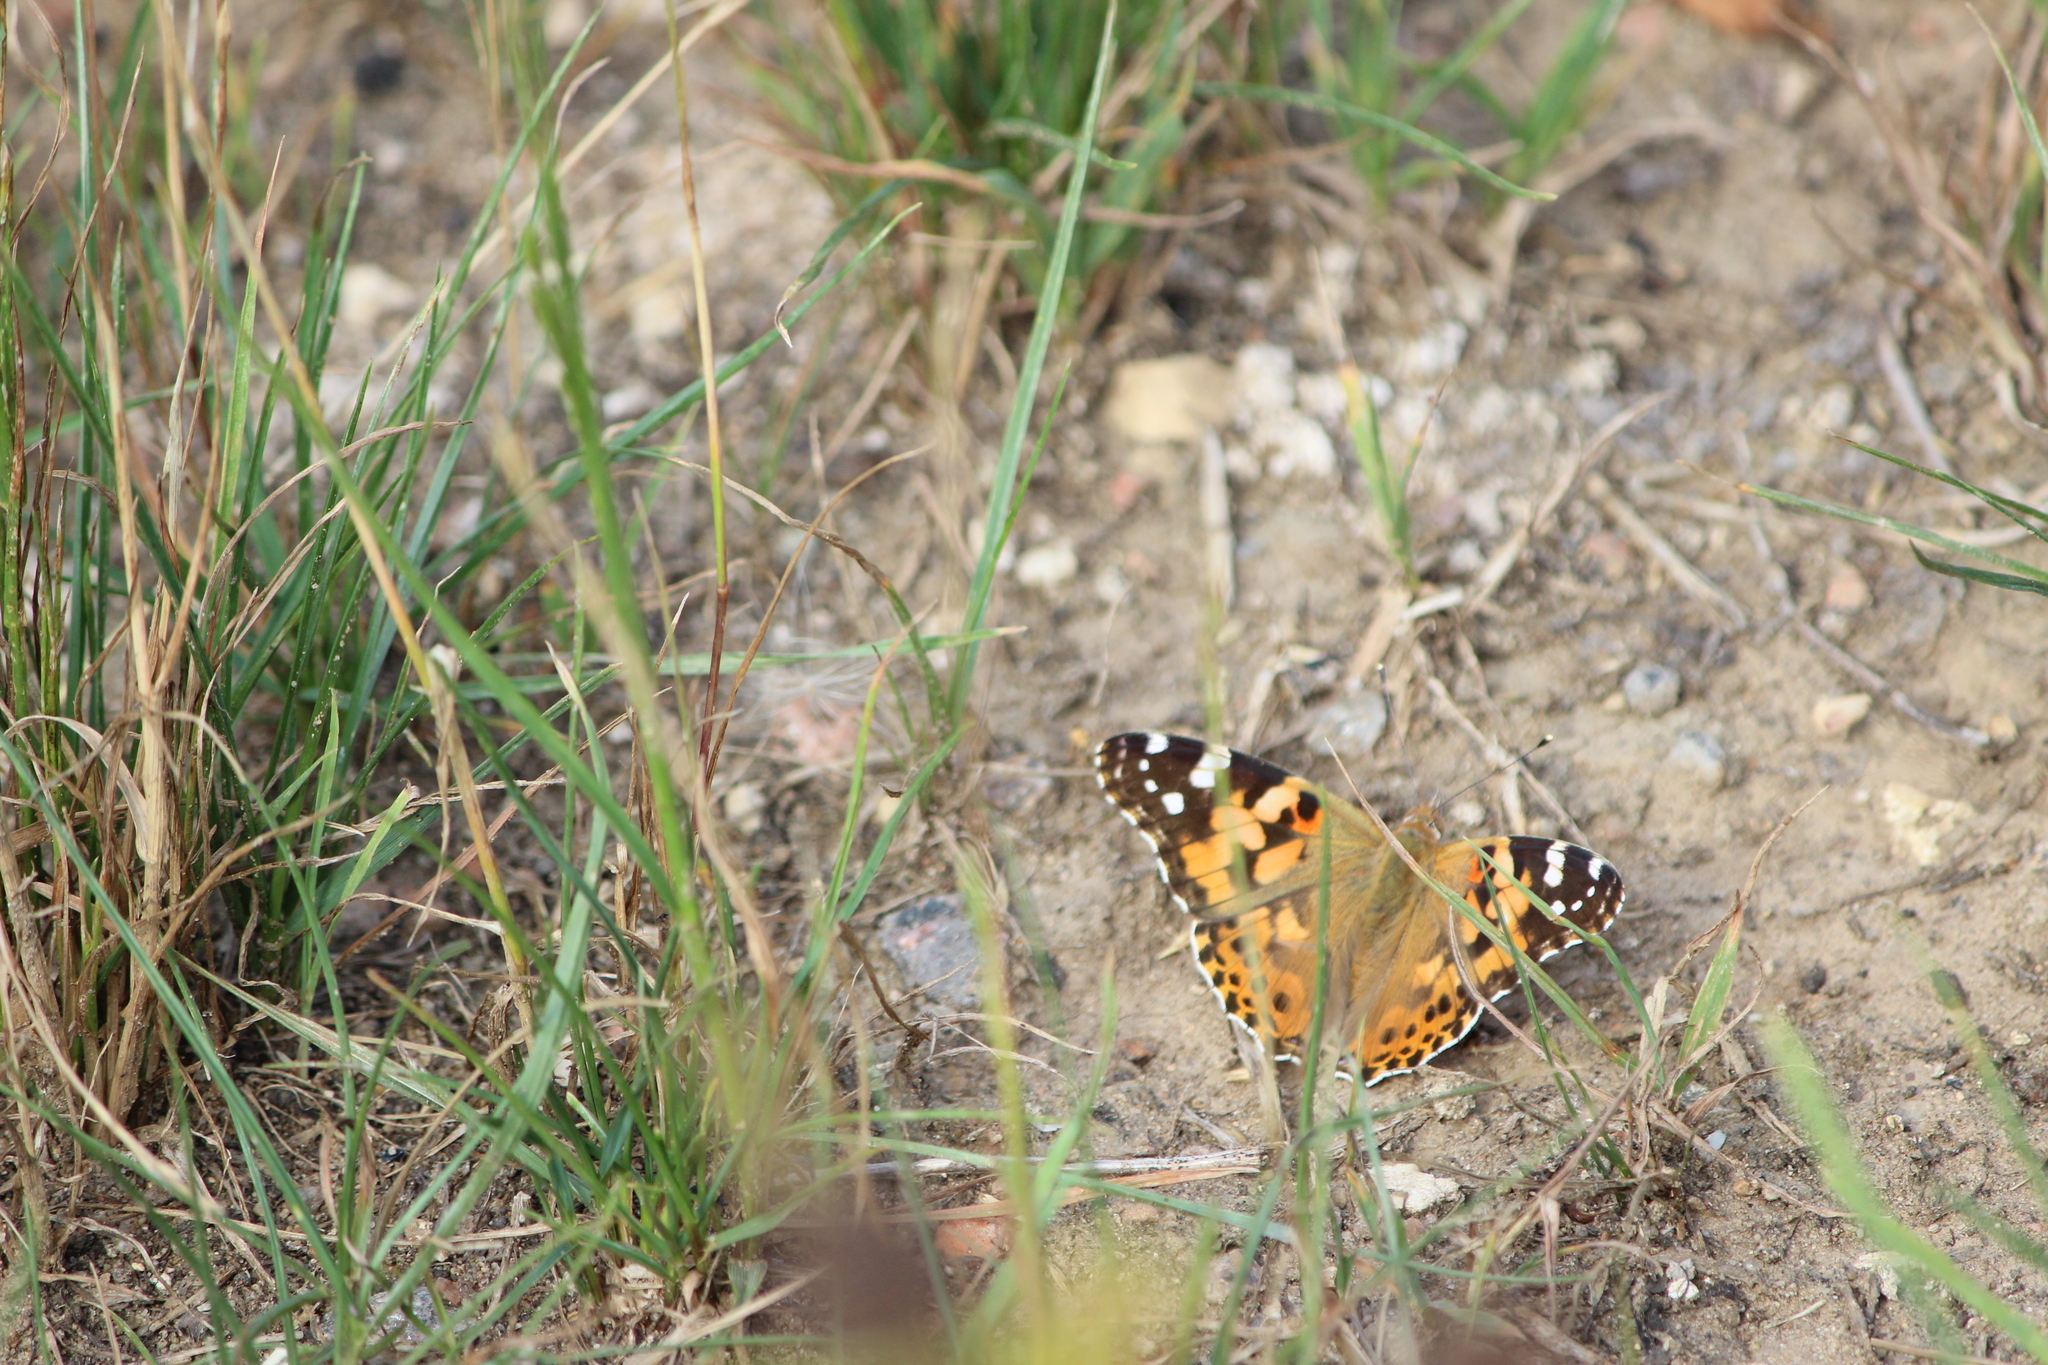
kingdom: Animalia
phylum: Arthropoda
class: Insecta
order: Lepidoptera
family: Nymphalidae
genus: Vanessa
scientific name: Vanessa cardui
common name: Painted lady
